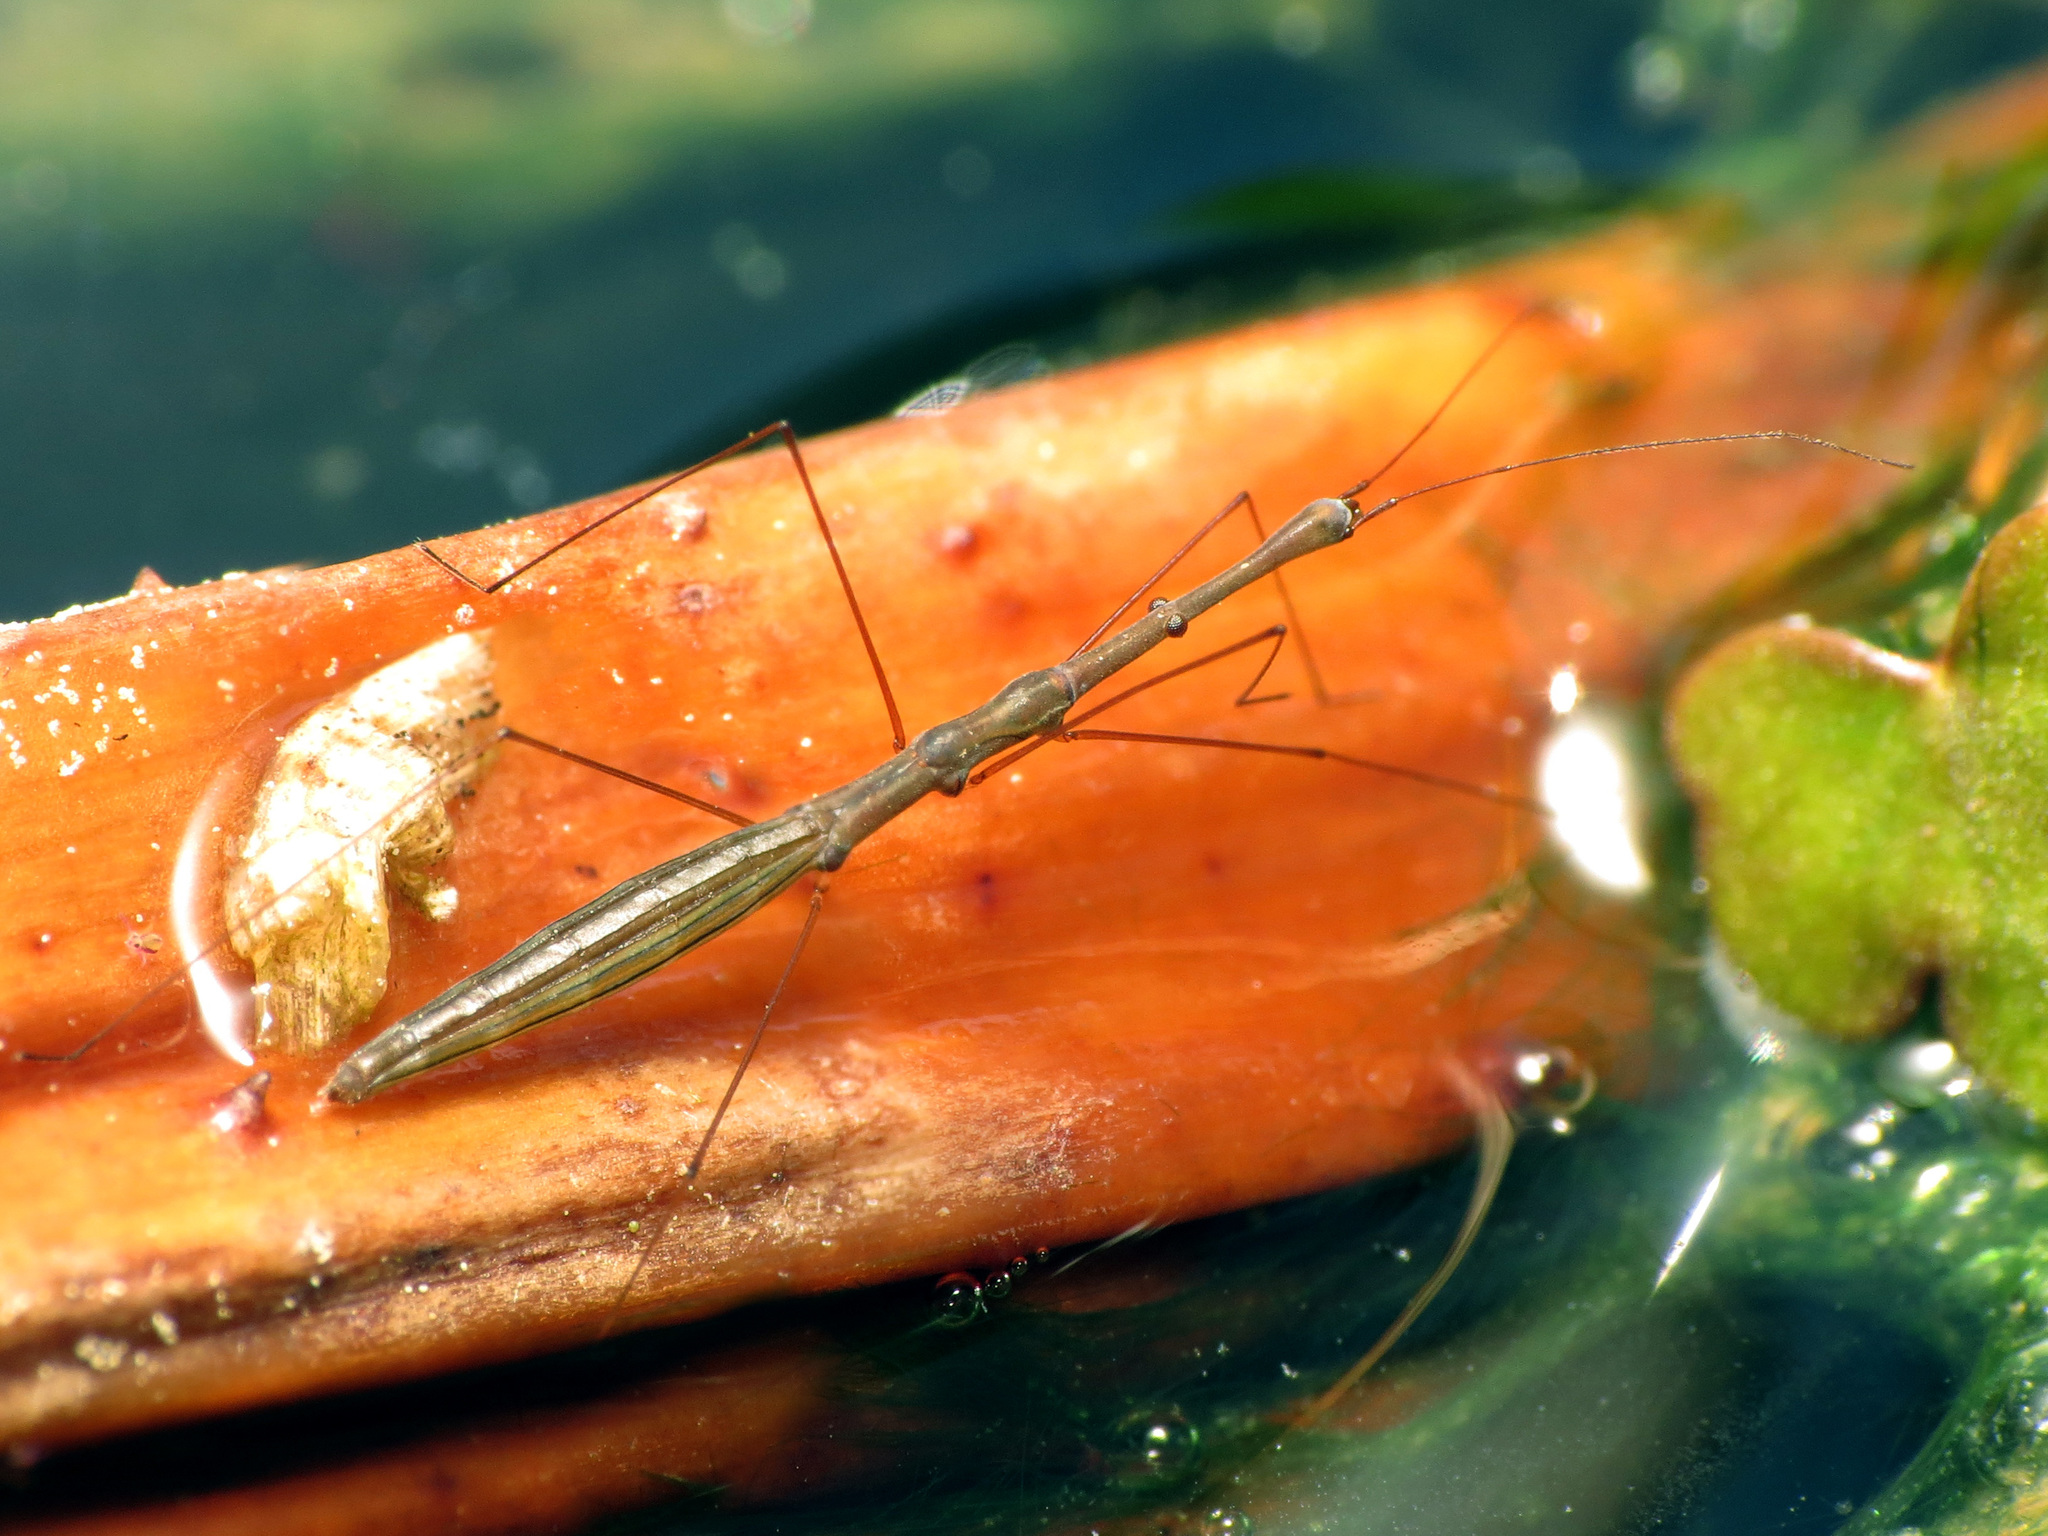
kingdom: Animalia
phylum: Arthropoda
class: Insecta
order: Hemiptera
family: Hydrometridae
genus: Hydrometra
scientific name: Hydrometra martini
